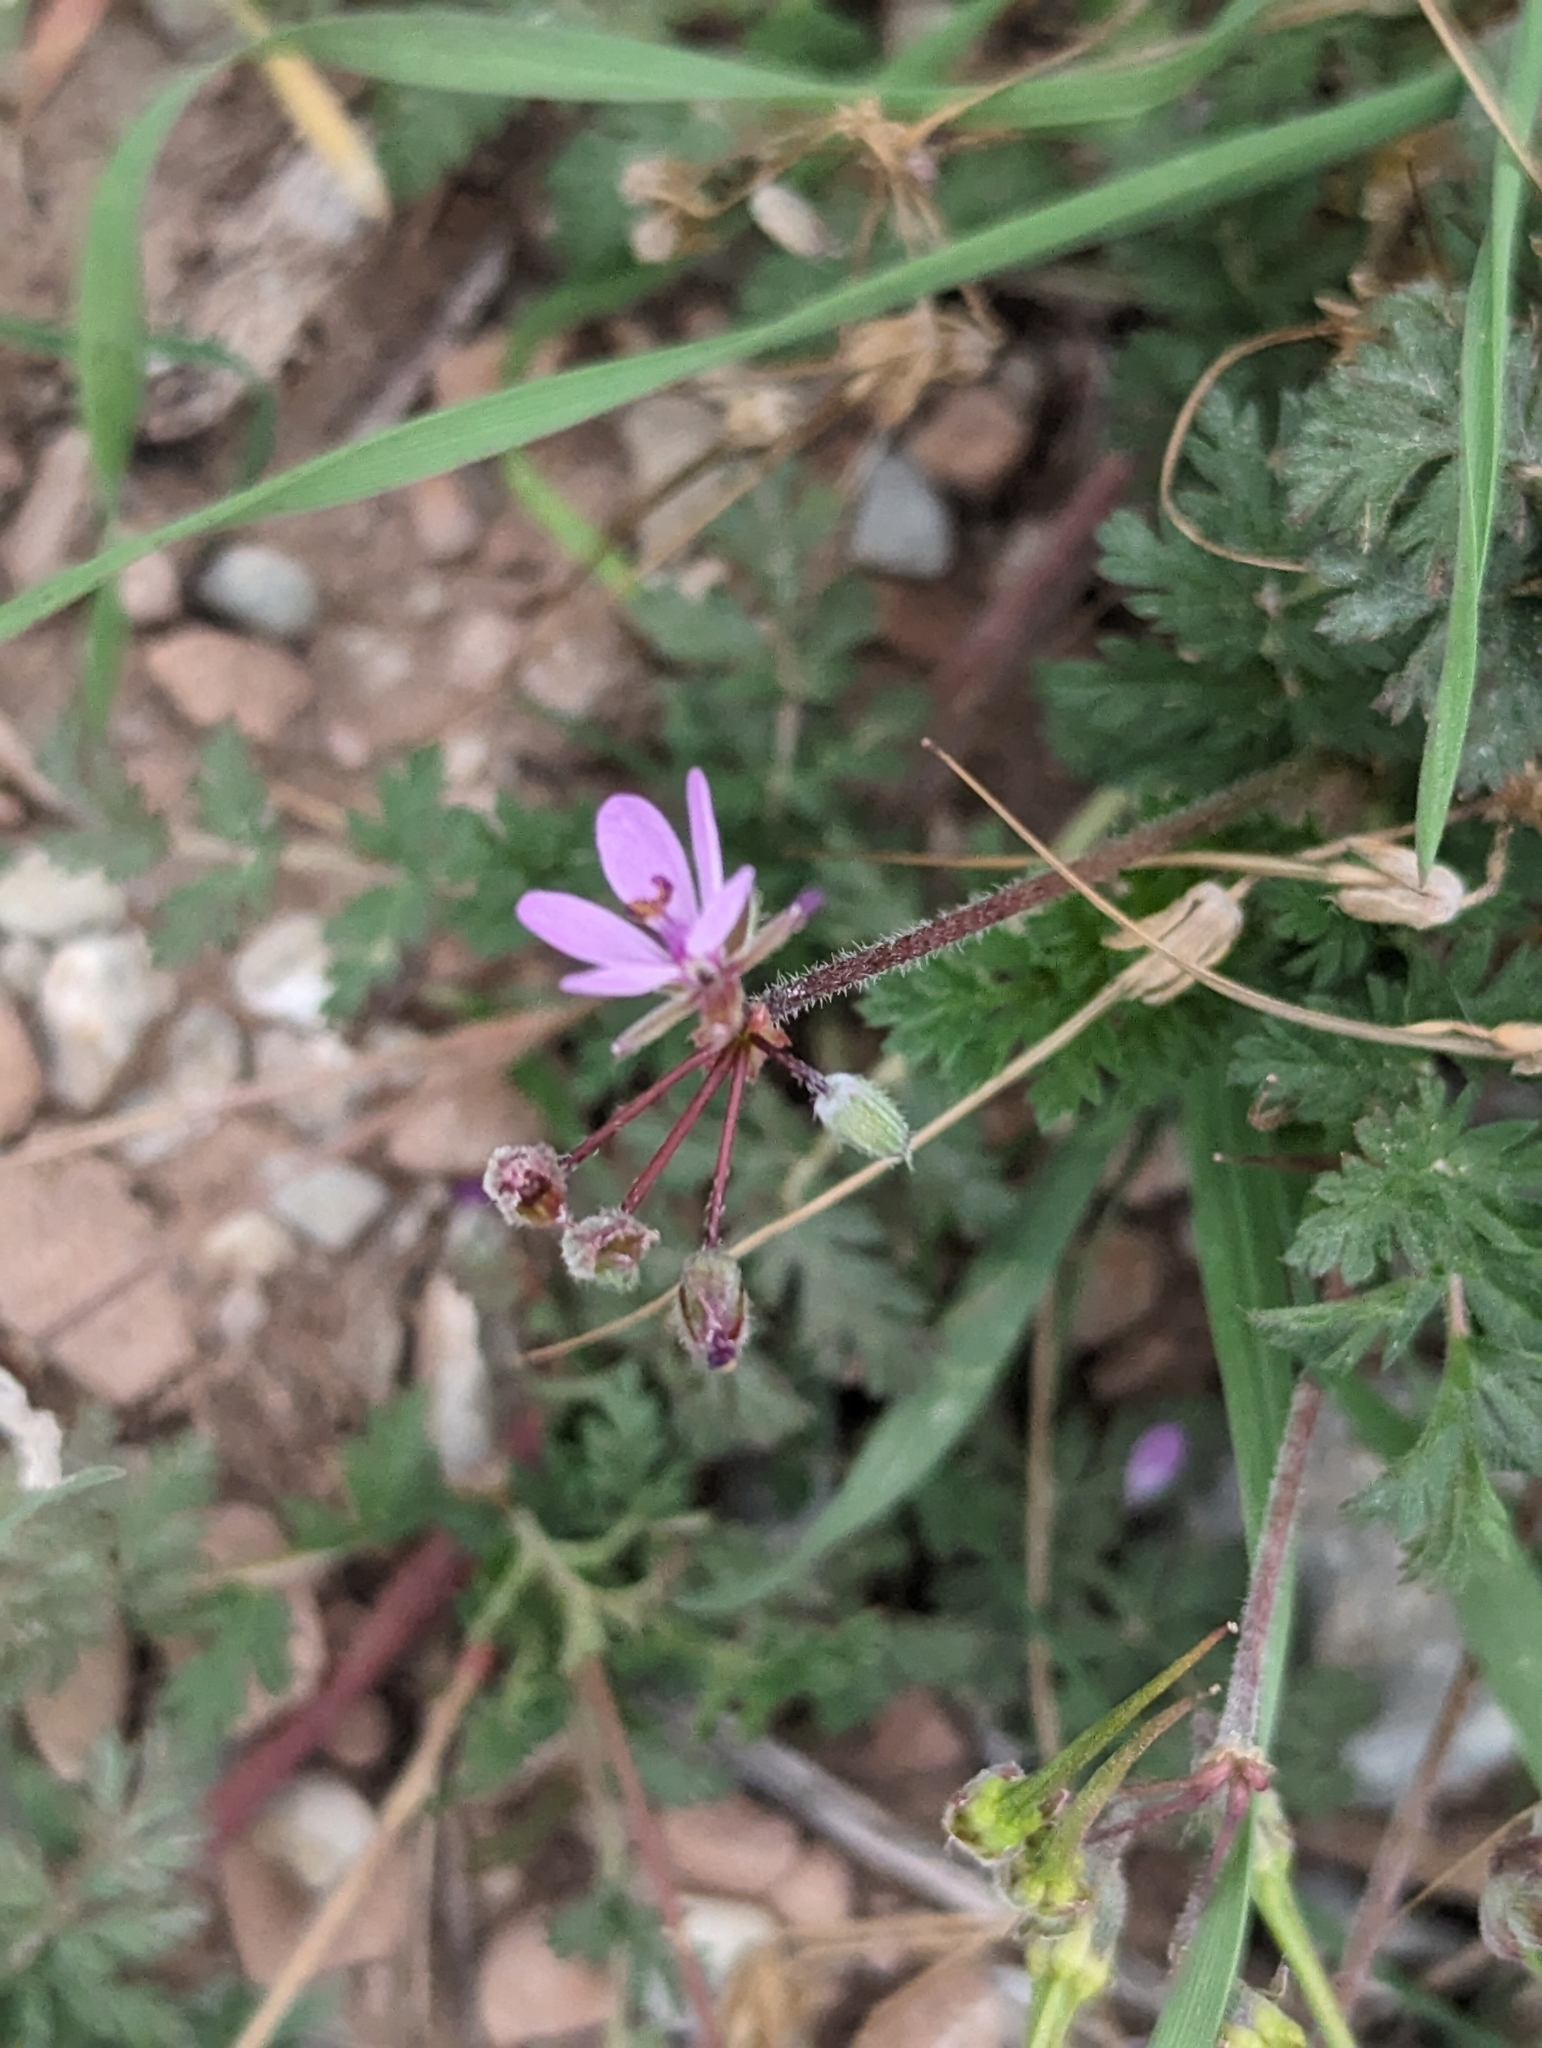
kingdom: Plantae
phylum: Tracheophyta
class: Magnoliopsida
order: Geraniales
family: Geraniaceae
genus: Erodium
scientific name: Erodium cicutarium
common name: Common stork's-bill
